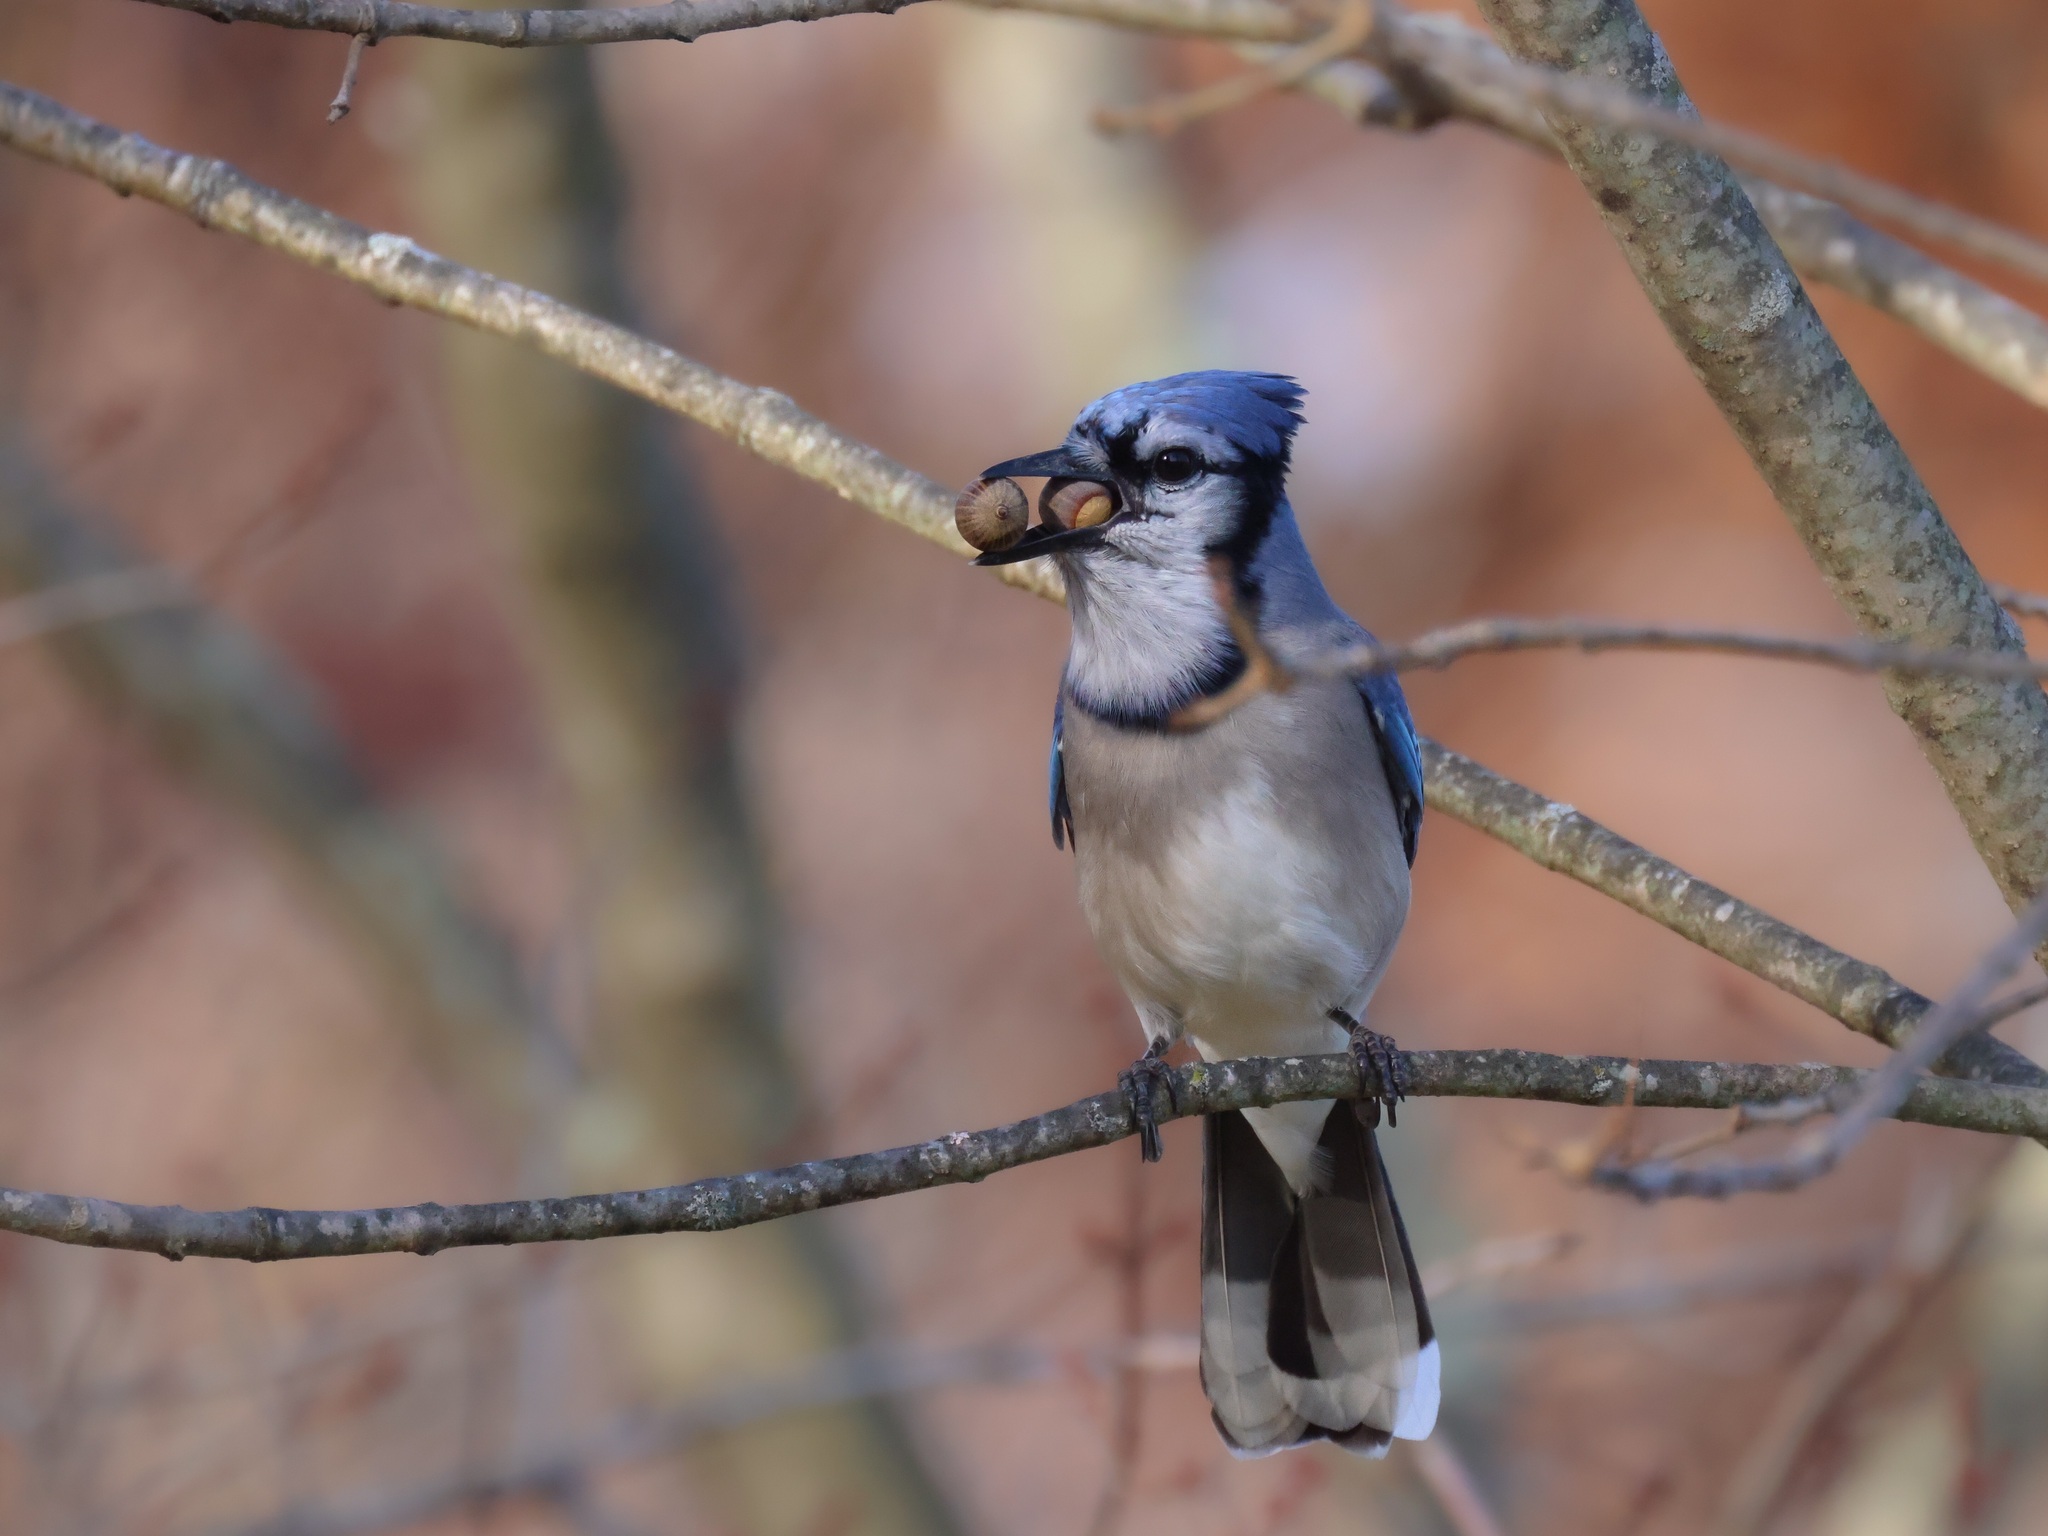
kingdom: Animalia
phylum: Chordata
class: Aves
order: Passeriformes
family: Corvidae
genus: Cyanocitta
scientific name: Cyanocitta cristata
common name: Blue jay
